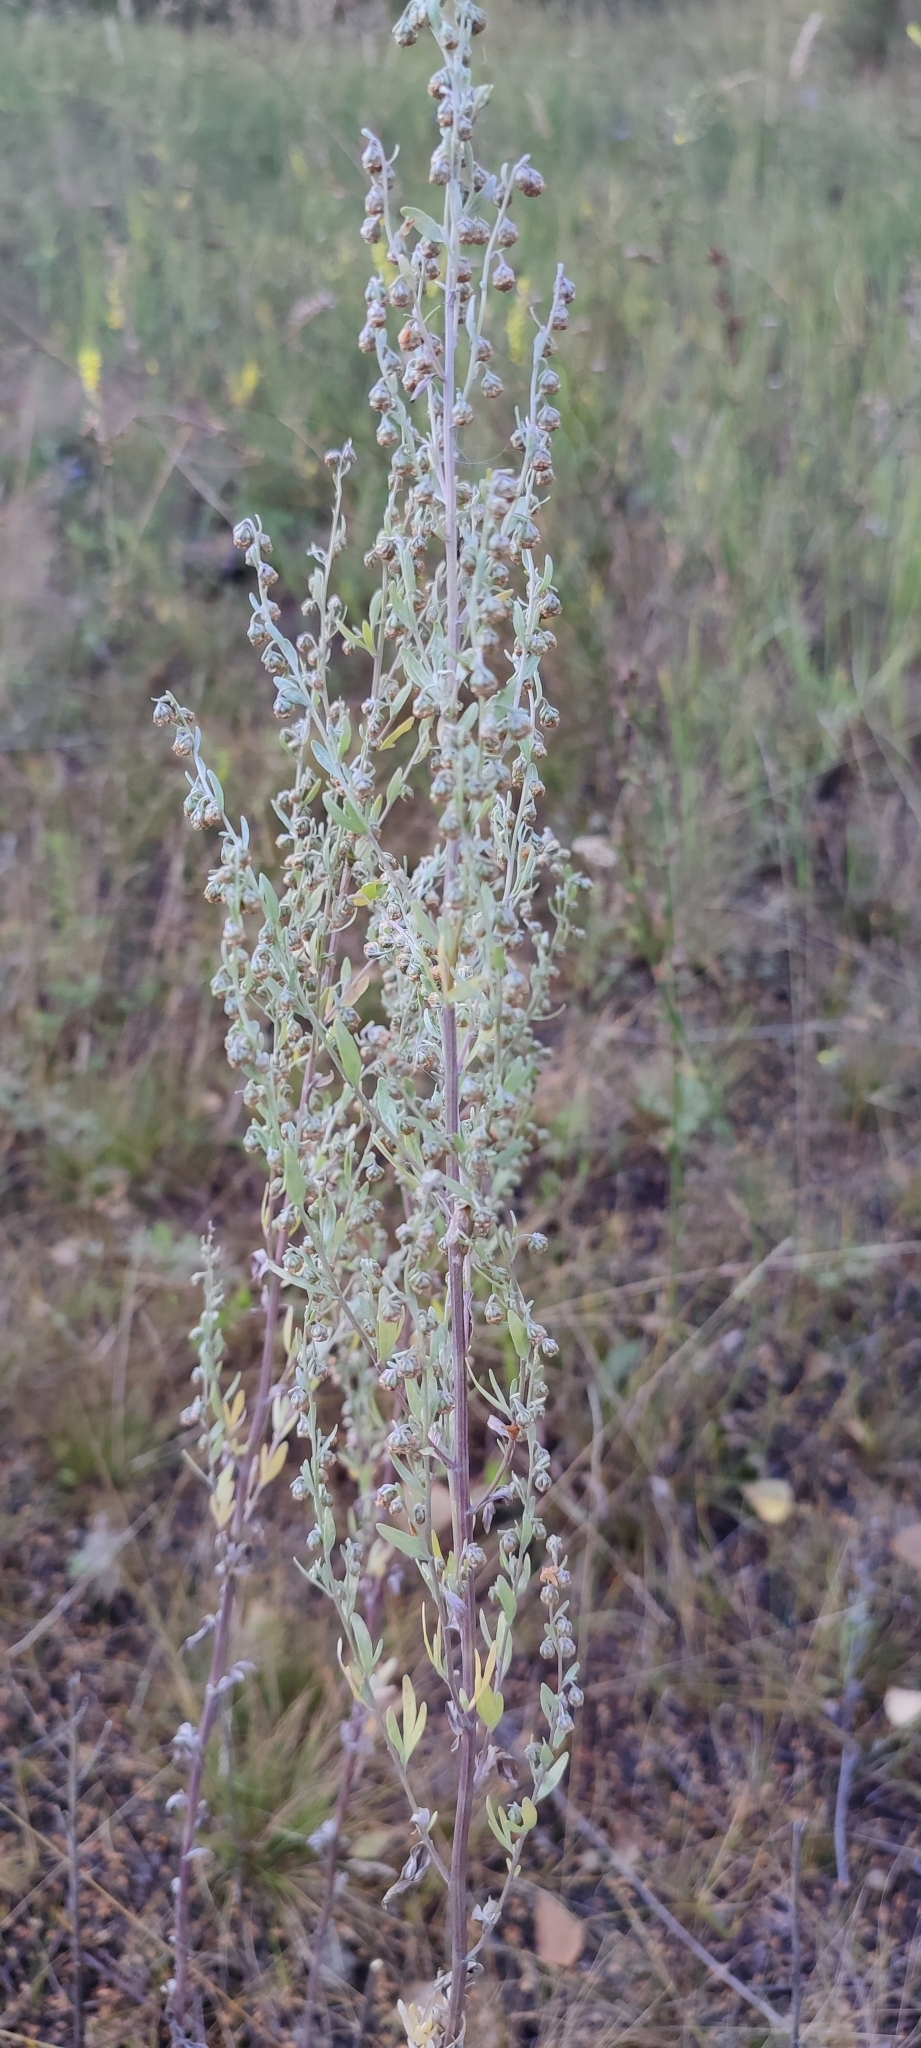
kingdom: Plantae
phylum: Tracheophyta
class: Magnoliopsida
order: Asterales
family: Asteraceae
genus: Artemisia
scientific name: Artemisia absinthium
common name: Wormwood
